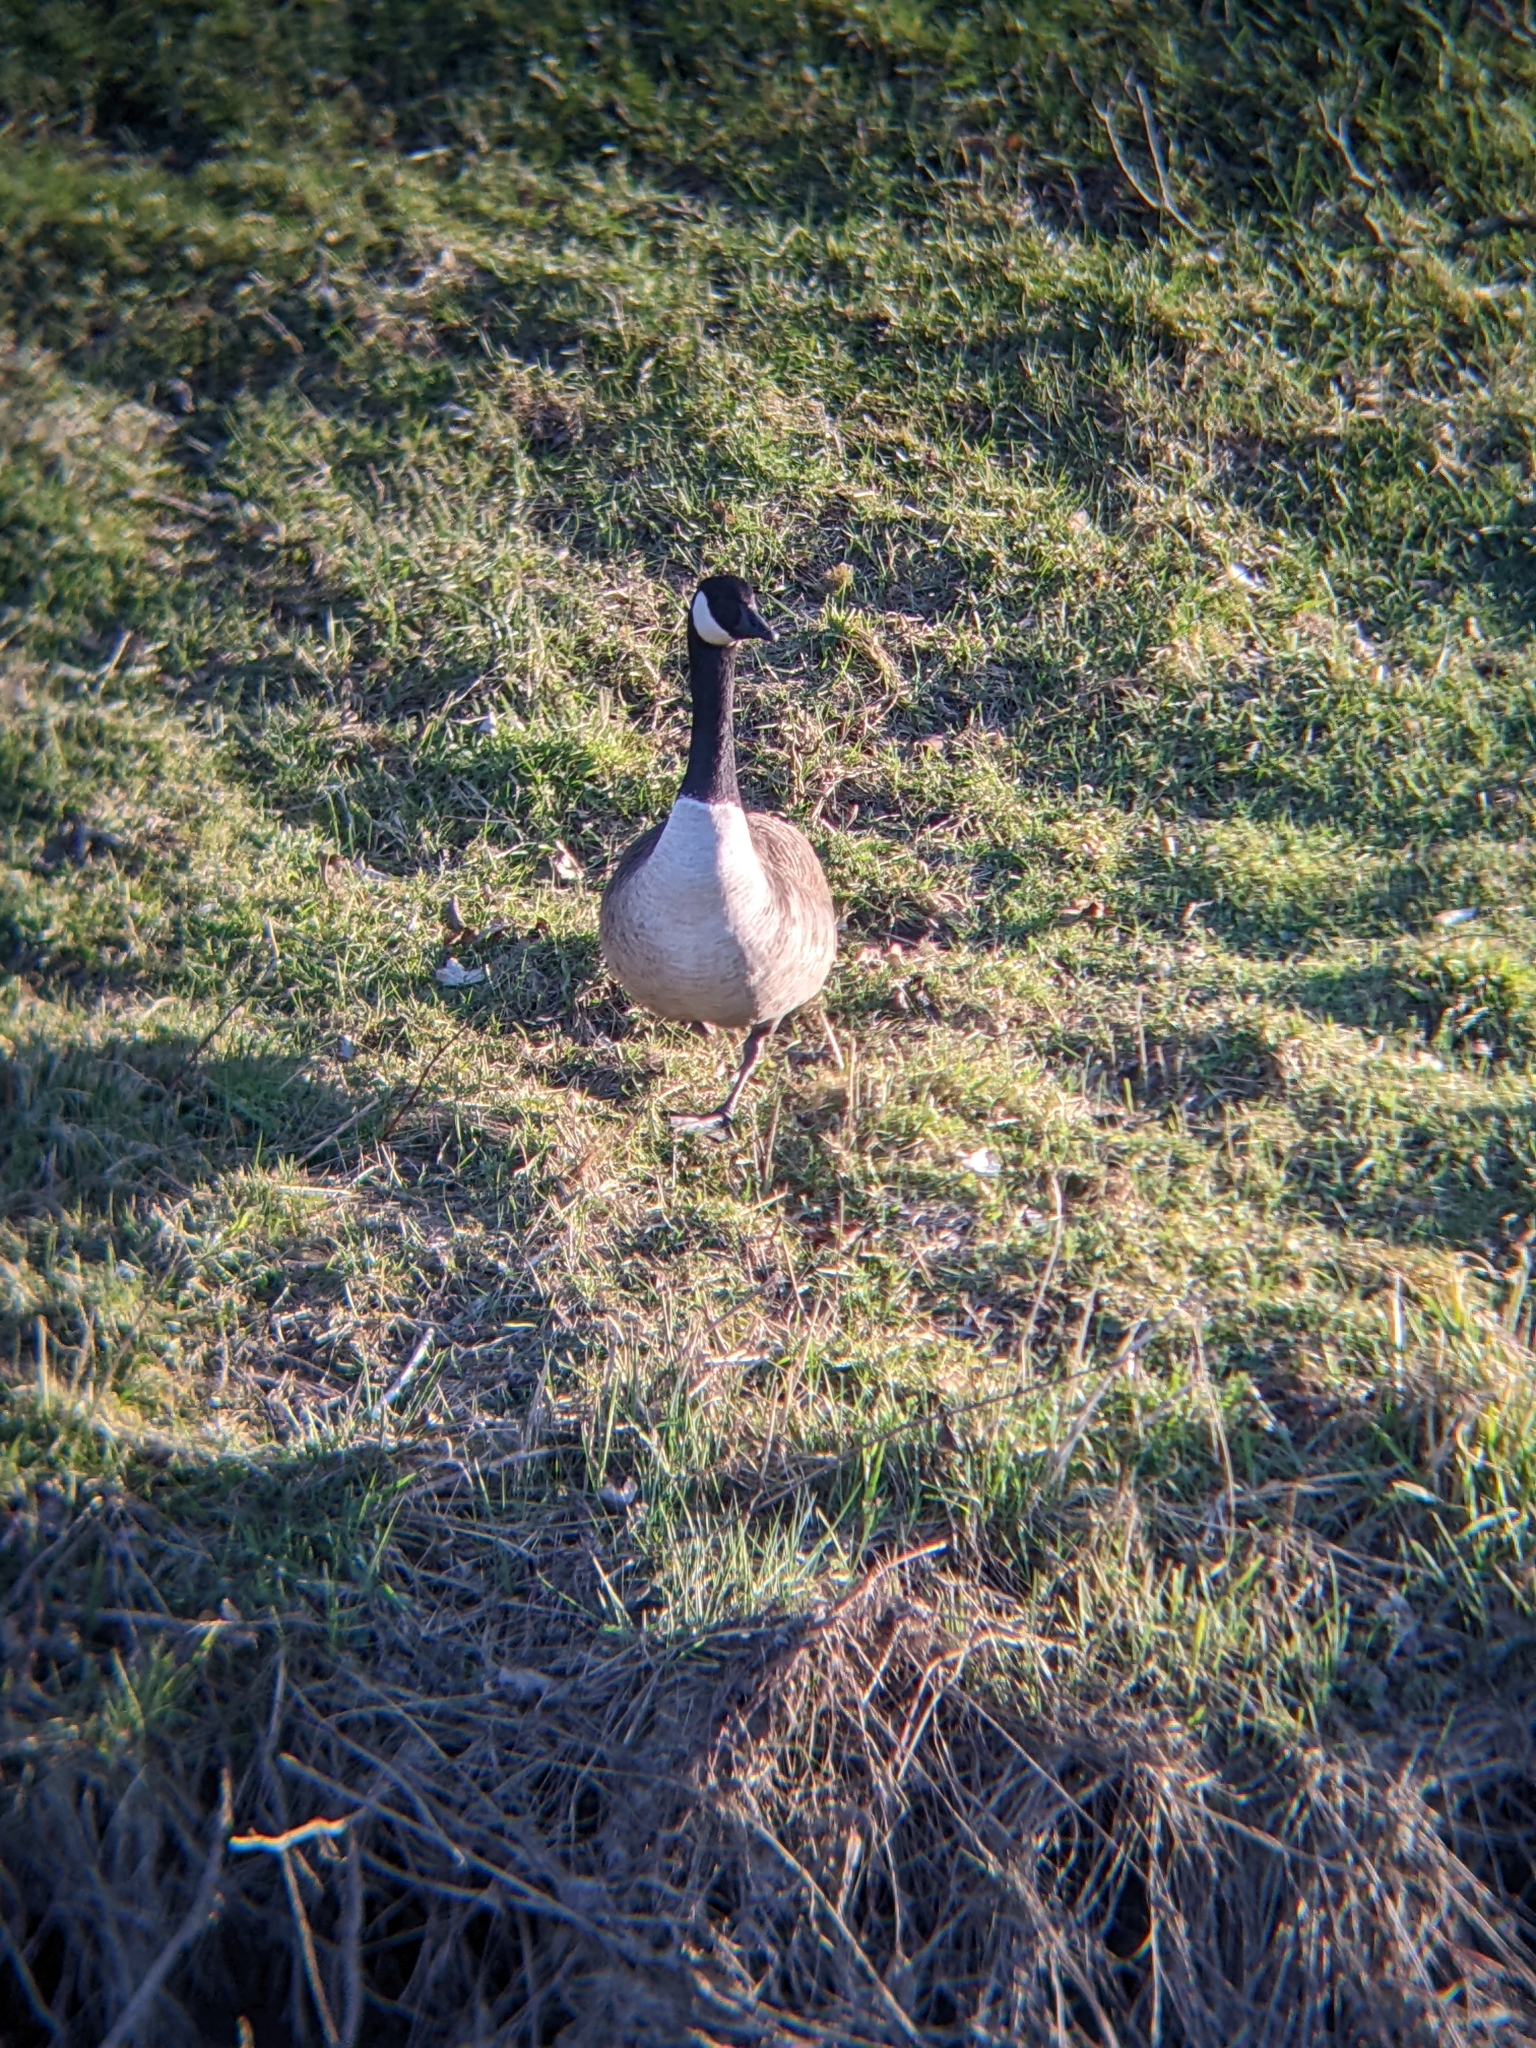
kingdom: Animalia
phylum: Chordata
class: Aves
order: Anseriformes
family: Anatidae
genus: Branta
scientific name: Branta canadensis
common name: Canada goose
